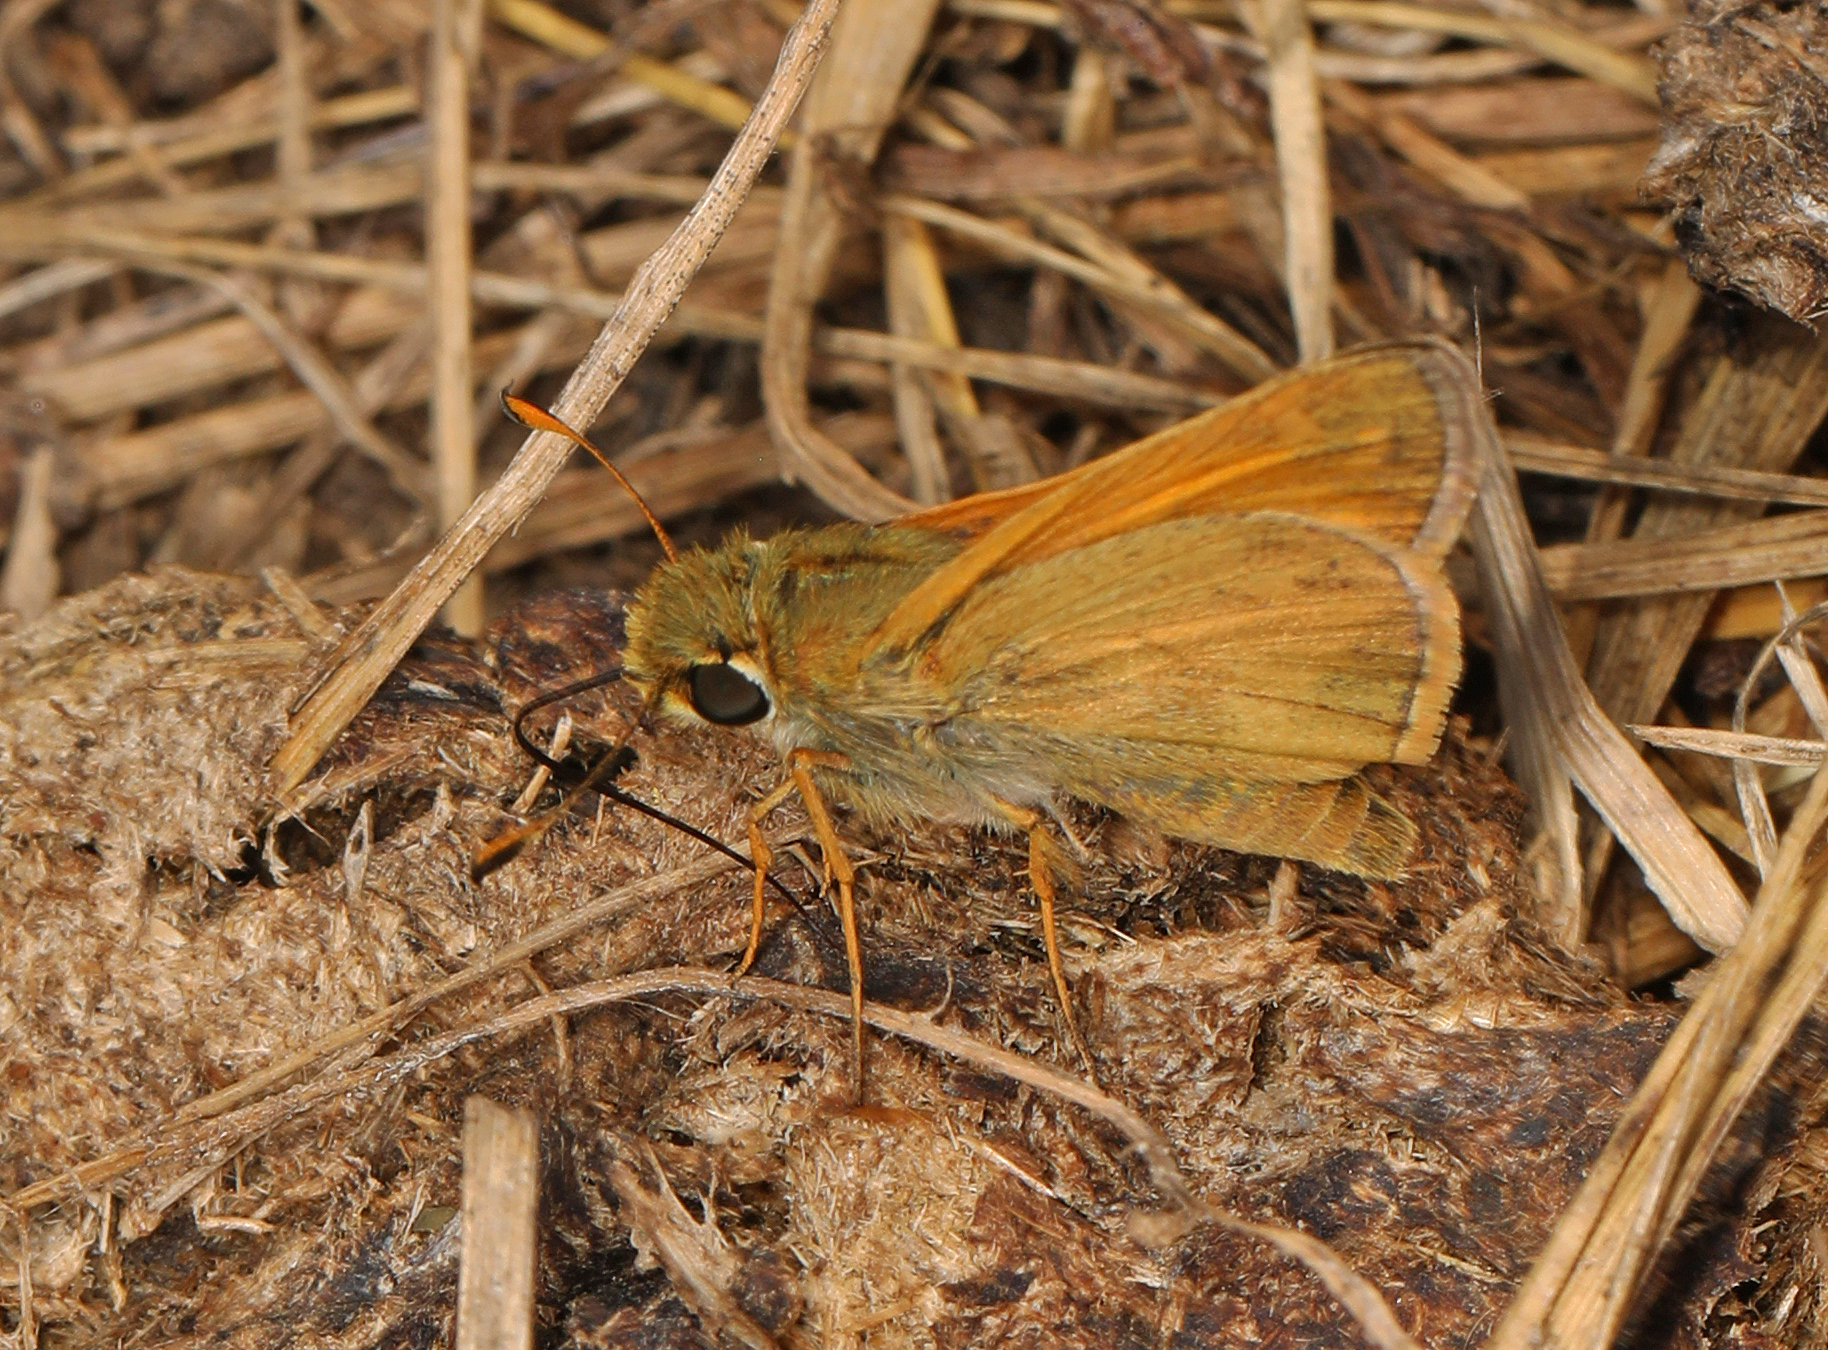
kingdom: Animalia
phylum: Arthropoda
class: Insecta
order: Lepidoptera
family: Hesperiidae
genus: Atalopedes
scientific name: Atalopedes
